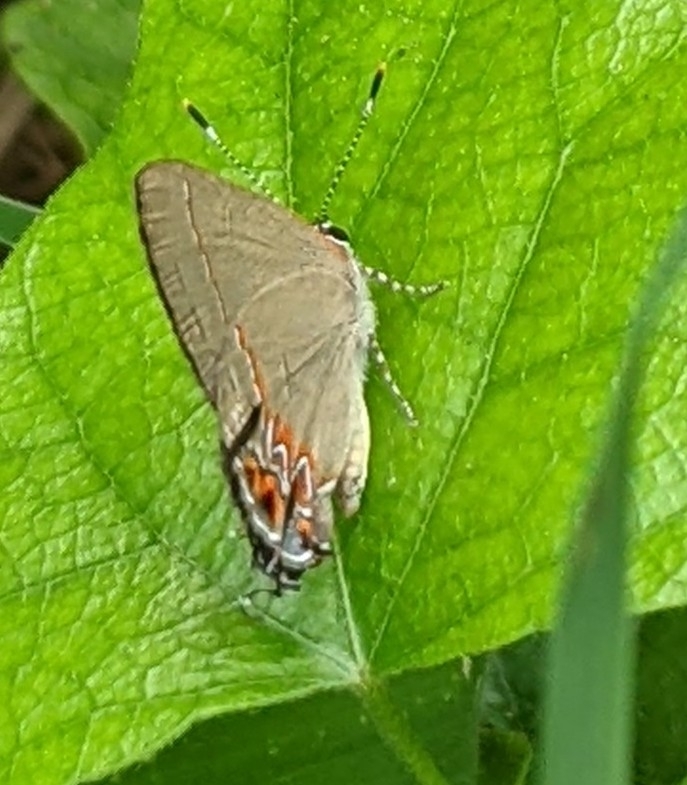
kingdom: Animalia
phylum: Arthropoda
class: Insecta
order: Lepidoptera
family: Lycaenidae
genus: Calycopis
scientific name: Calycopis isobeon
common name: Dusky-blue groundstreak
